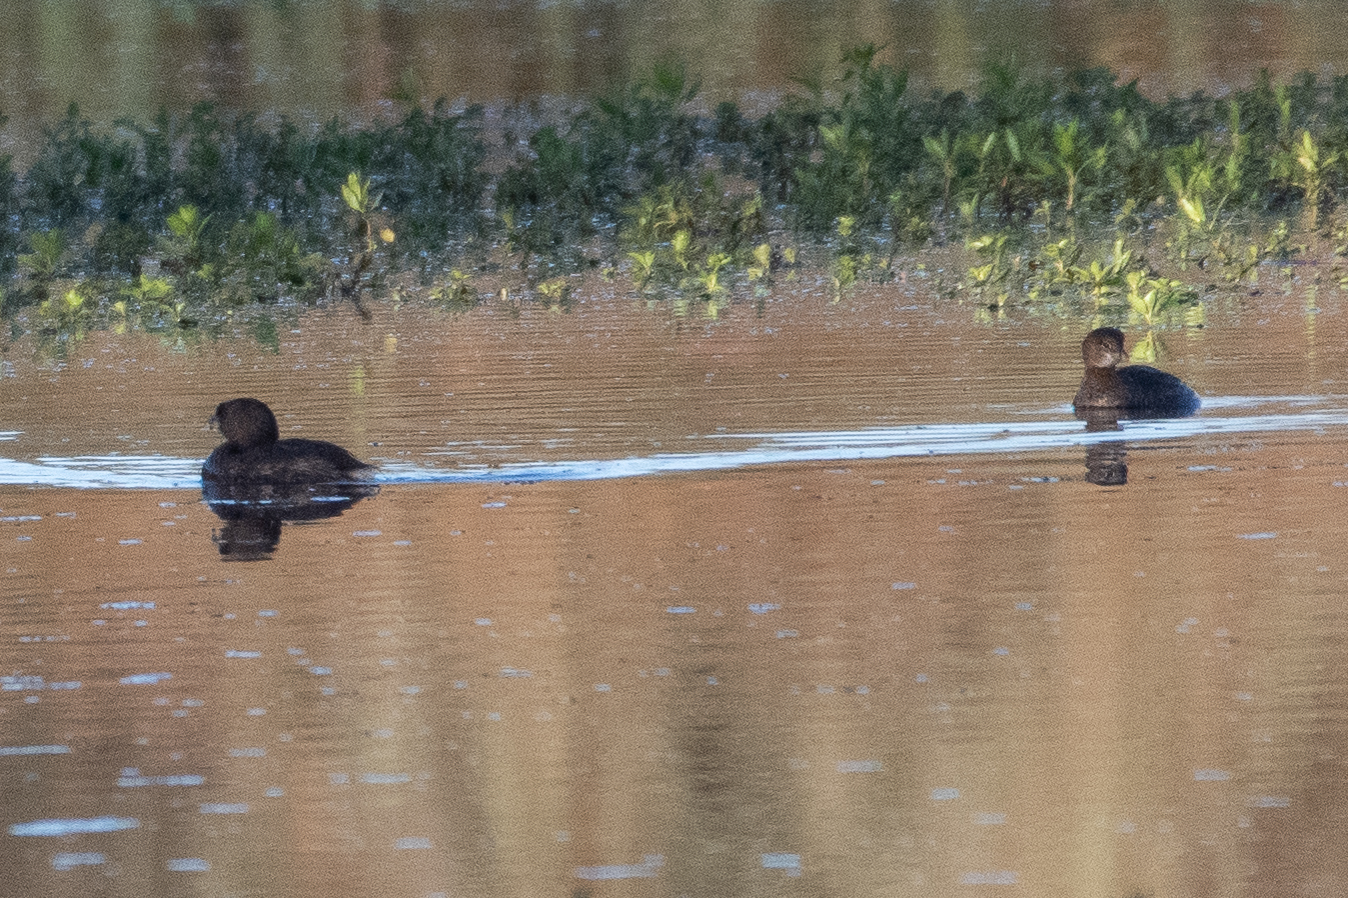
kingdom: Animalia
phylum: Chordata
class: Aves
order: Podicipediformes
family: Podicipedidae
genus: Podilymbus
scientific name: Podilymbus podiceps
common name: Pied-billed grebe
